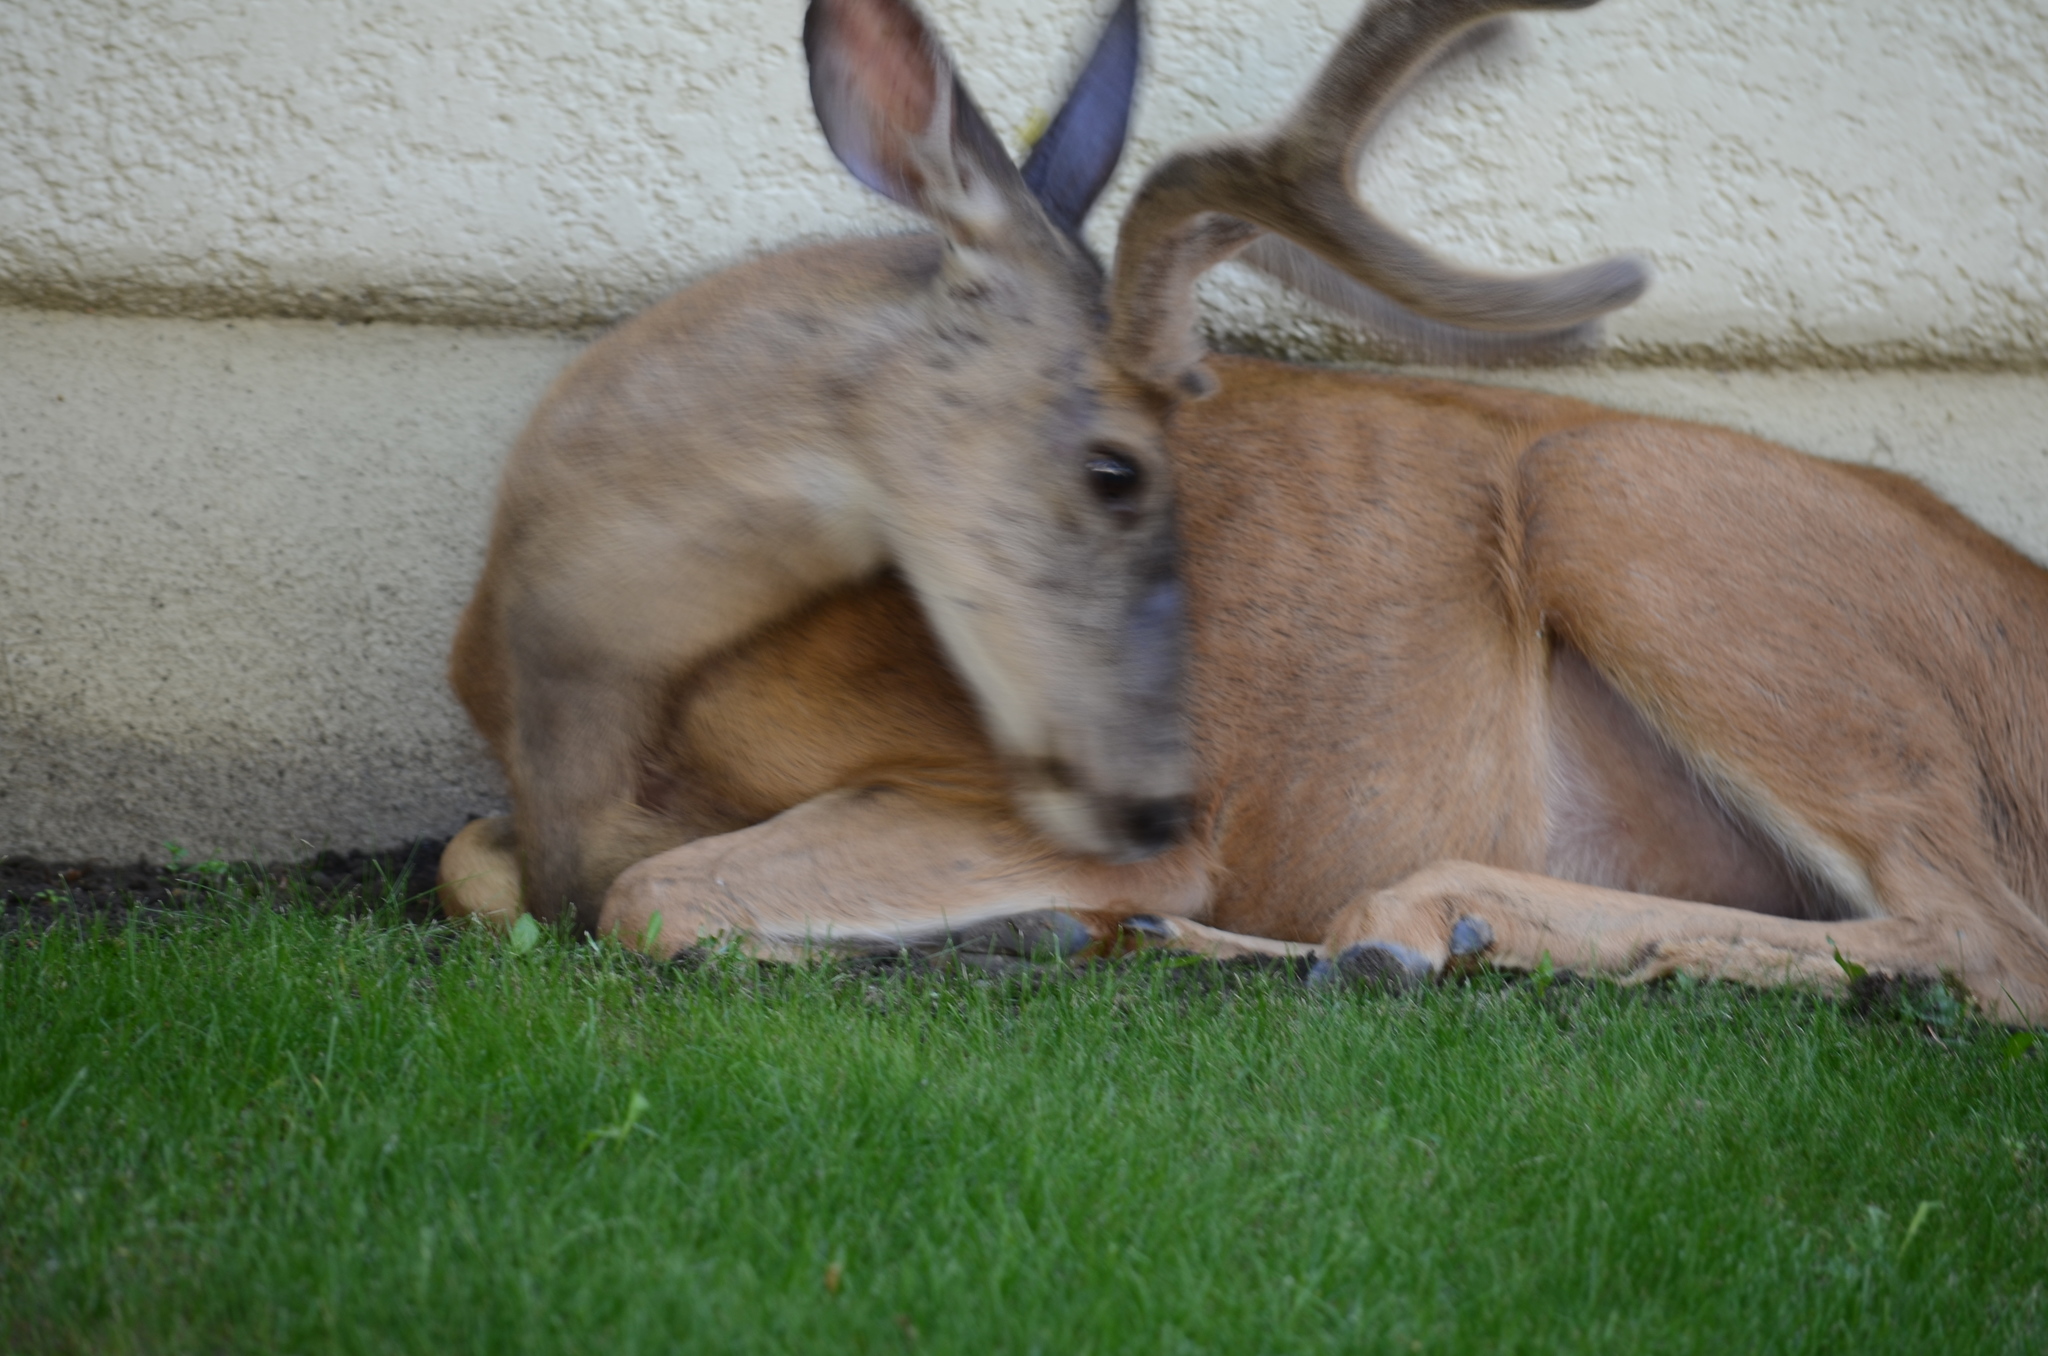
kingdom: Animalia
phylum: Chordata
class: Mammalia
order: Artiodactyla
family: Cervidae
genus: Odocoileus
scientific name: Odocoileus hemionus
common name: Mule deer
